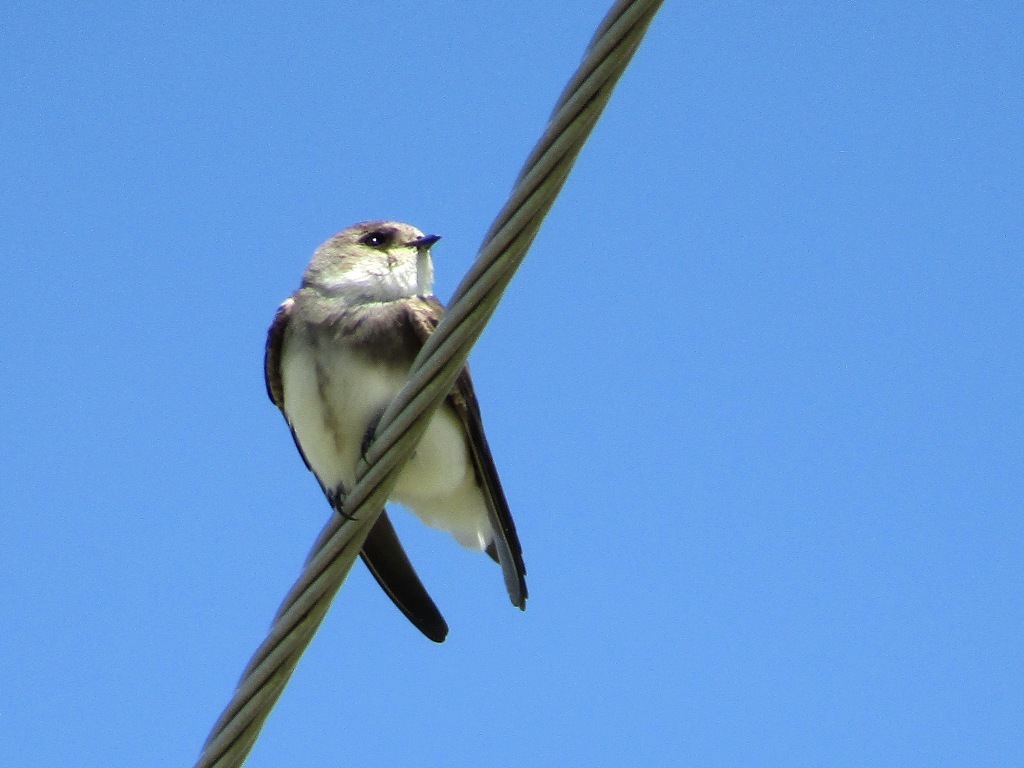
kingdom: Animalia
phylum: Chordata
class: Aves
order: Passeriformes
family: Hirundinidae
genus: Riparia
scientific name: Riparia diluta
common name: Pale martin
